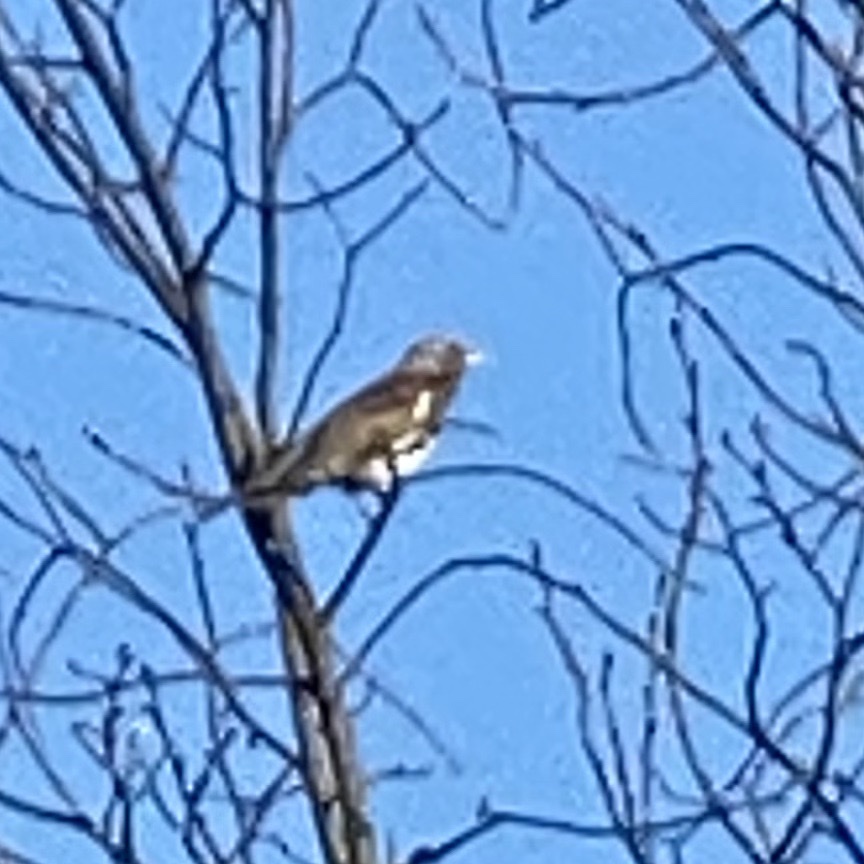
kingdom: Animalia
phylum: Chordata
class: Aves
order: Passeriformes
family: Turdidae
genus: Turdus
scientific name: Turdus pilaris
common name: Fieldfare
